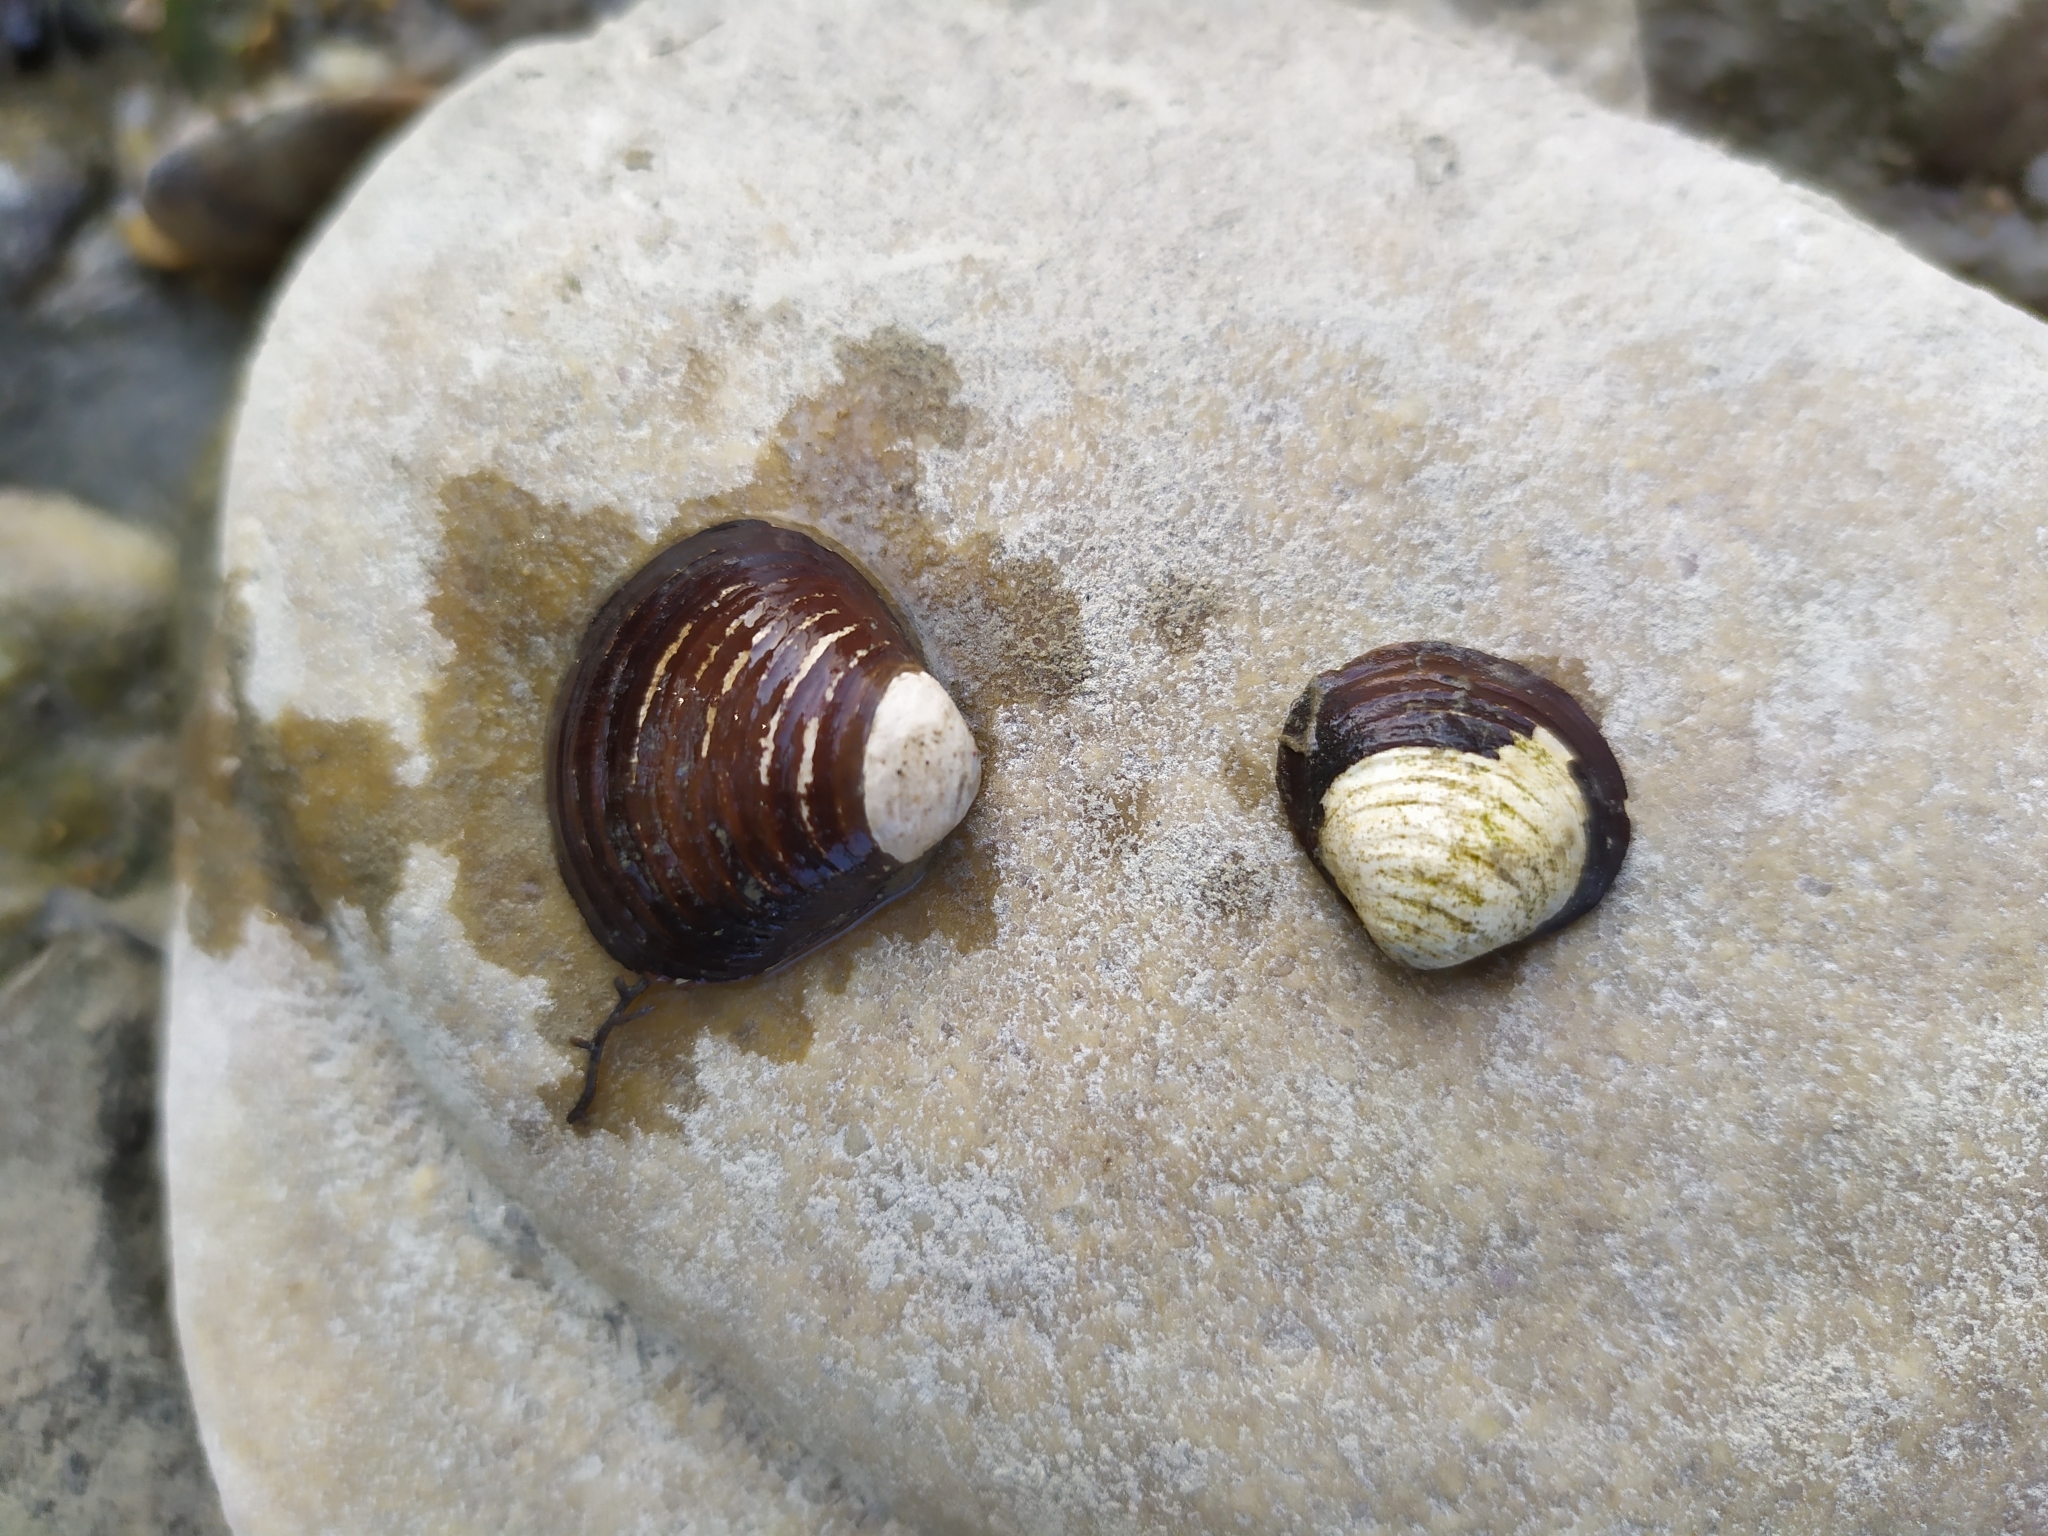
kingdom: Animalia
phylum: Mollusca
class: Bivalvia
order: Venerida
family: Cyrenidae
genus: Corbicula
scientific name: Corbicula fluminea
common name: Asian clam
